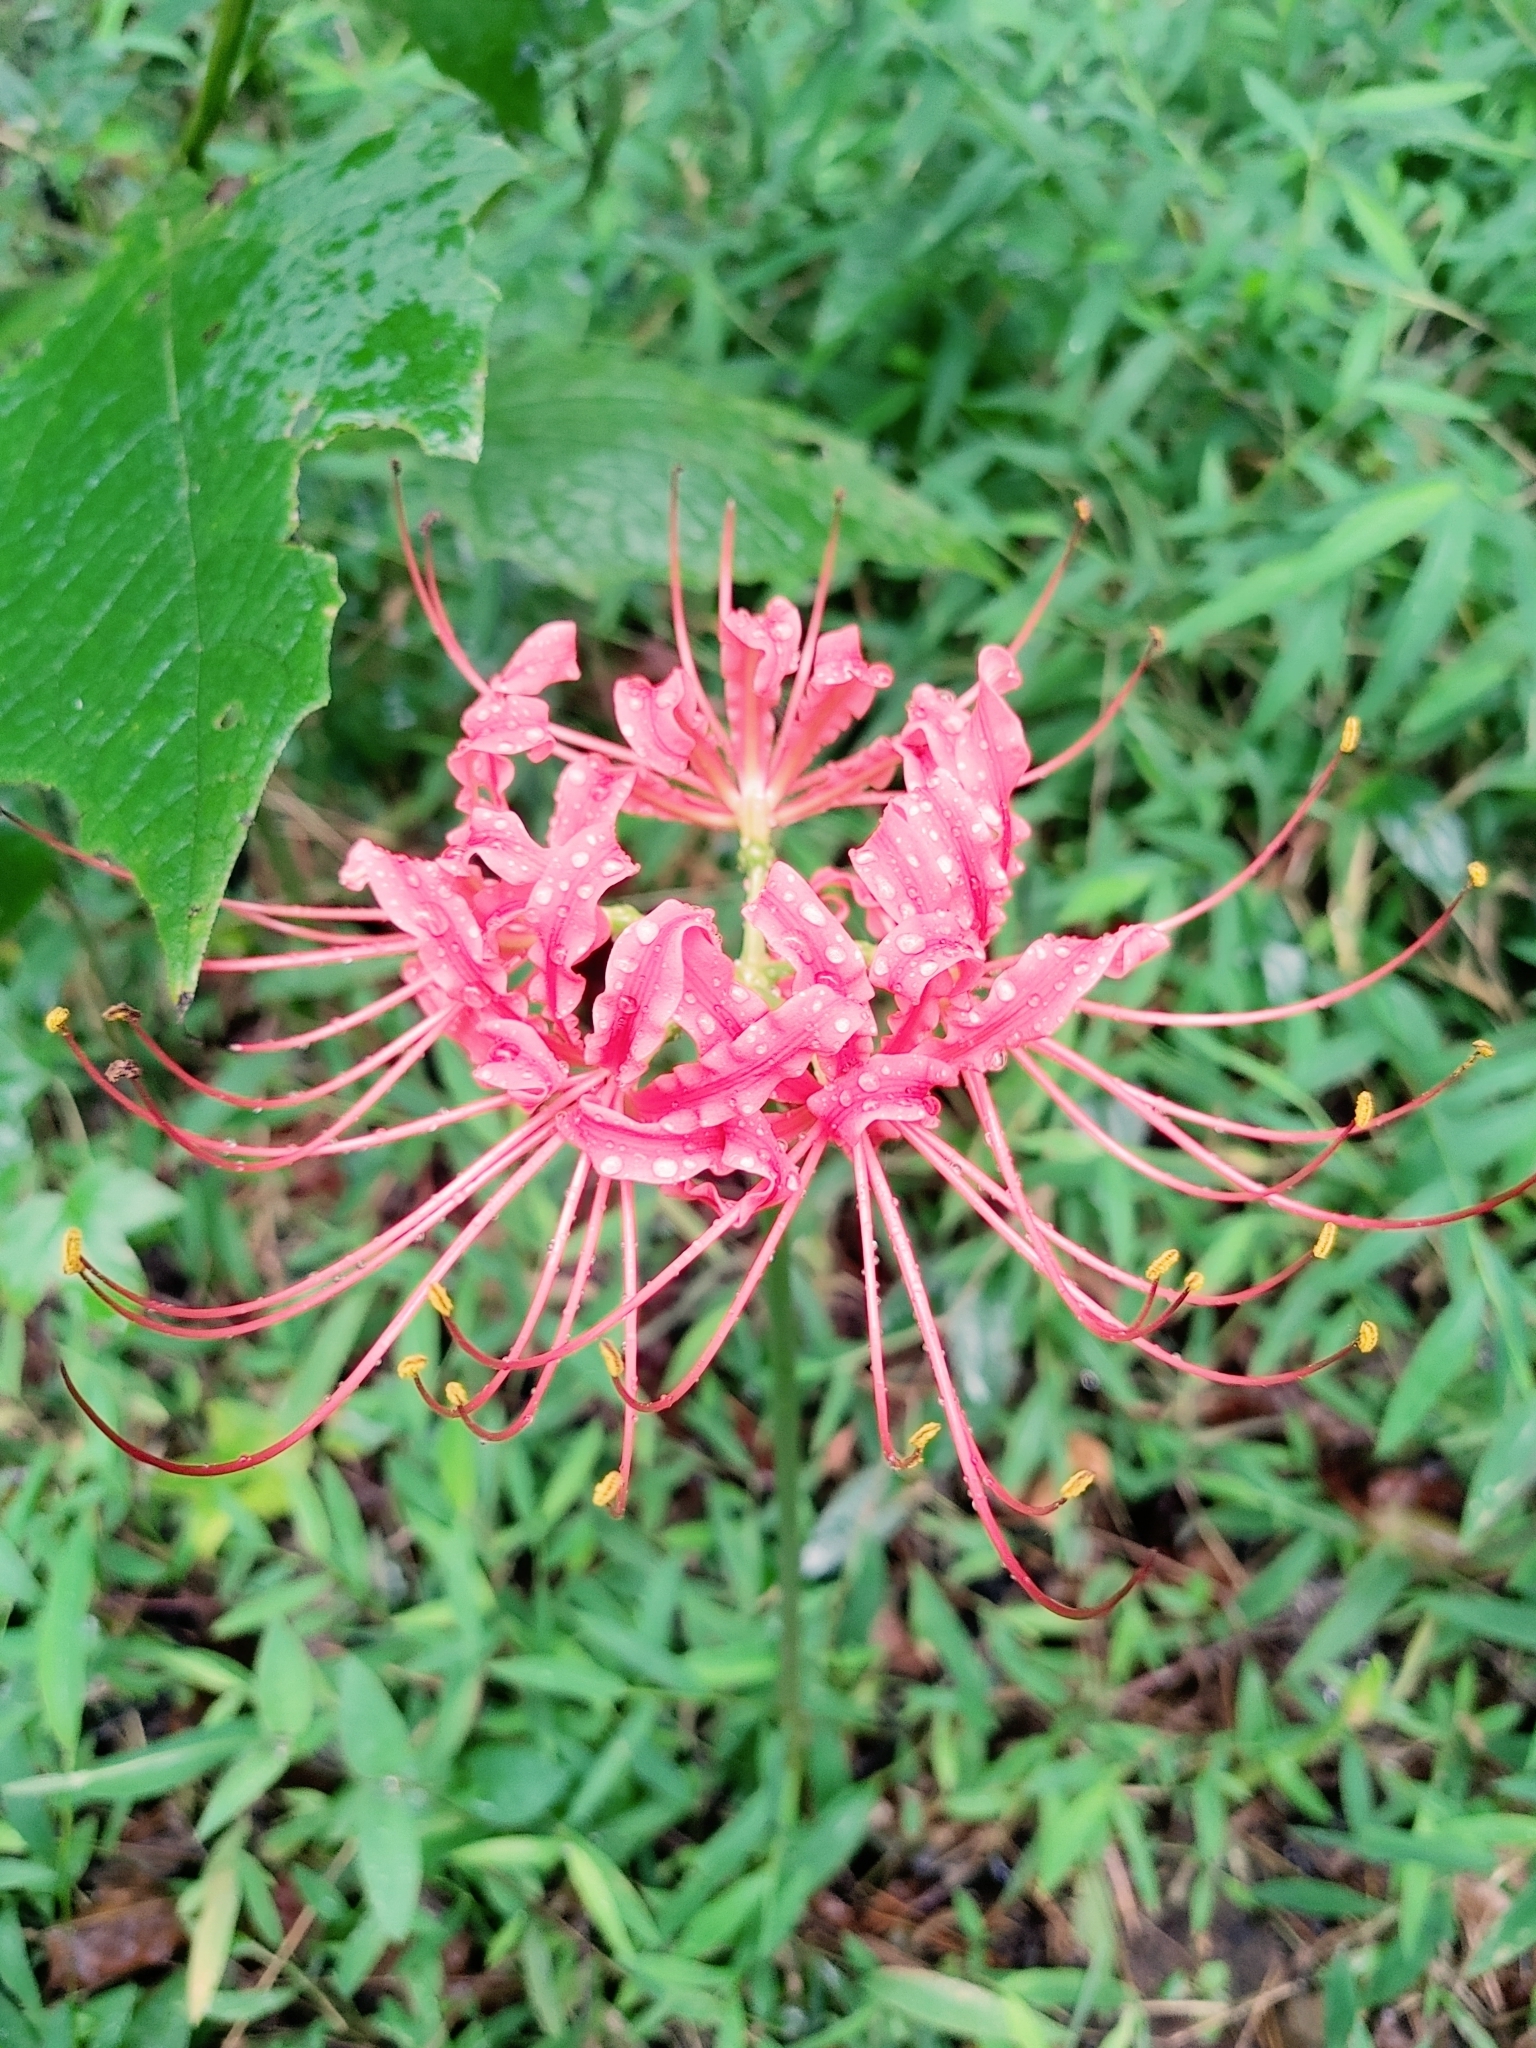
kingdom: Plantae
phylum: Tracheophyta
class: Liliopsida
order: Asparagales
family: Amaryllidaceae
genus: Lycoris
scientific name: Lycoris radiata
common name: Red spider lily
